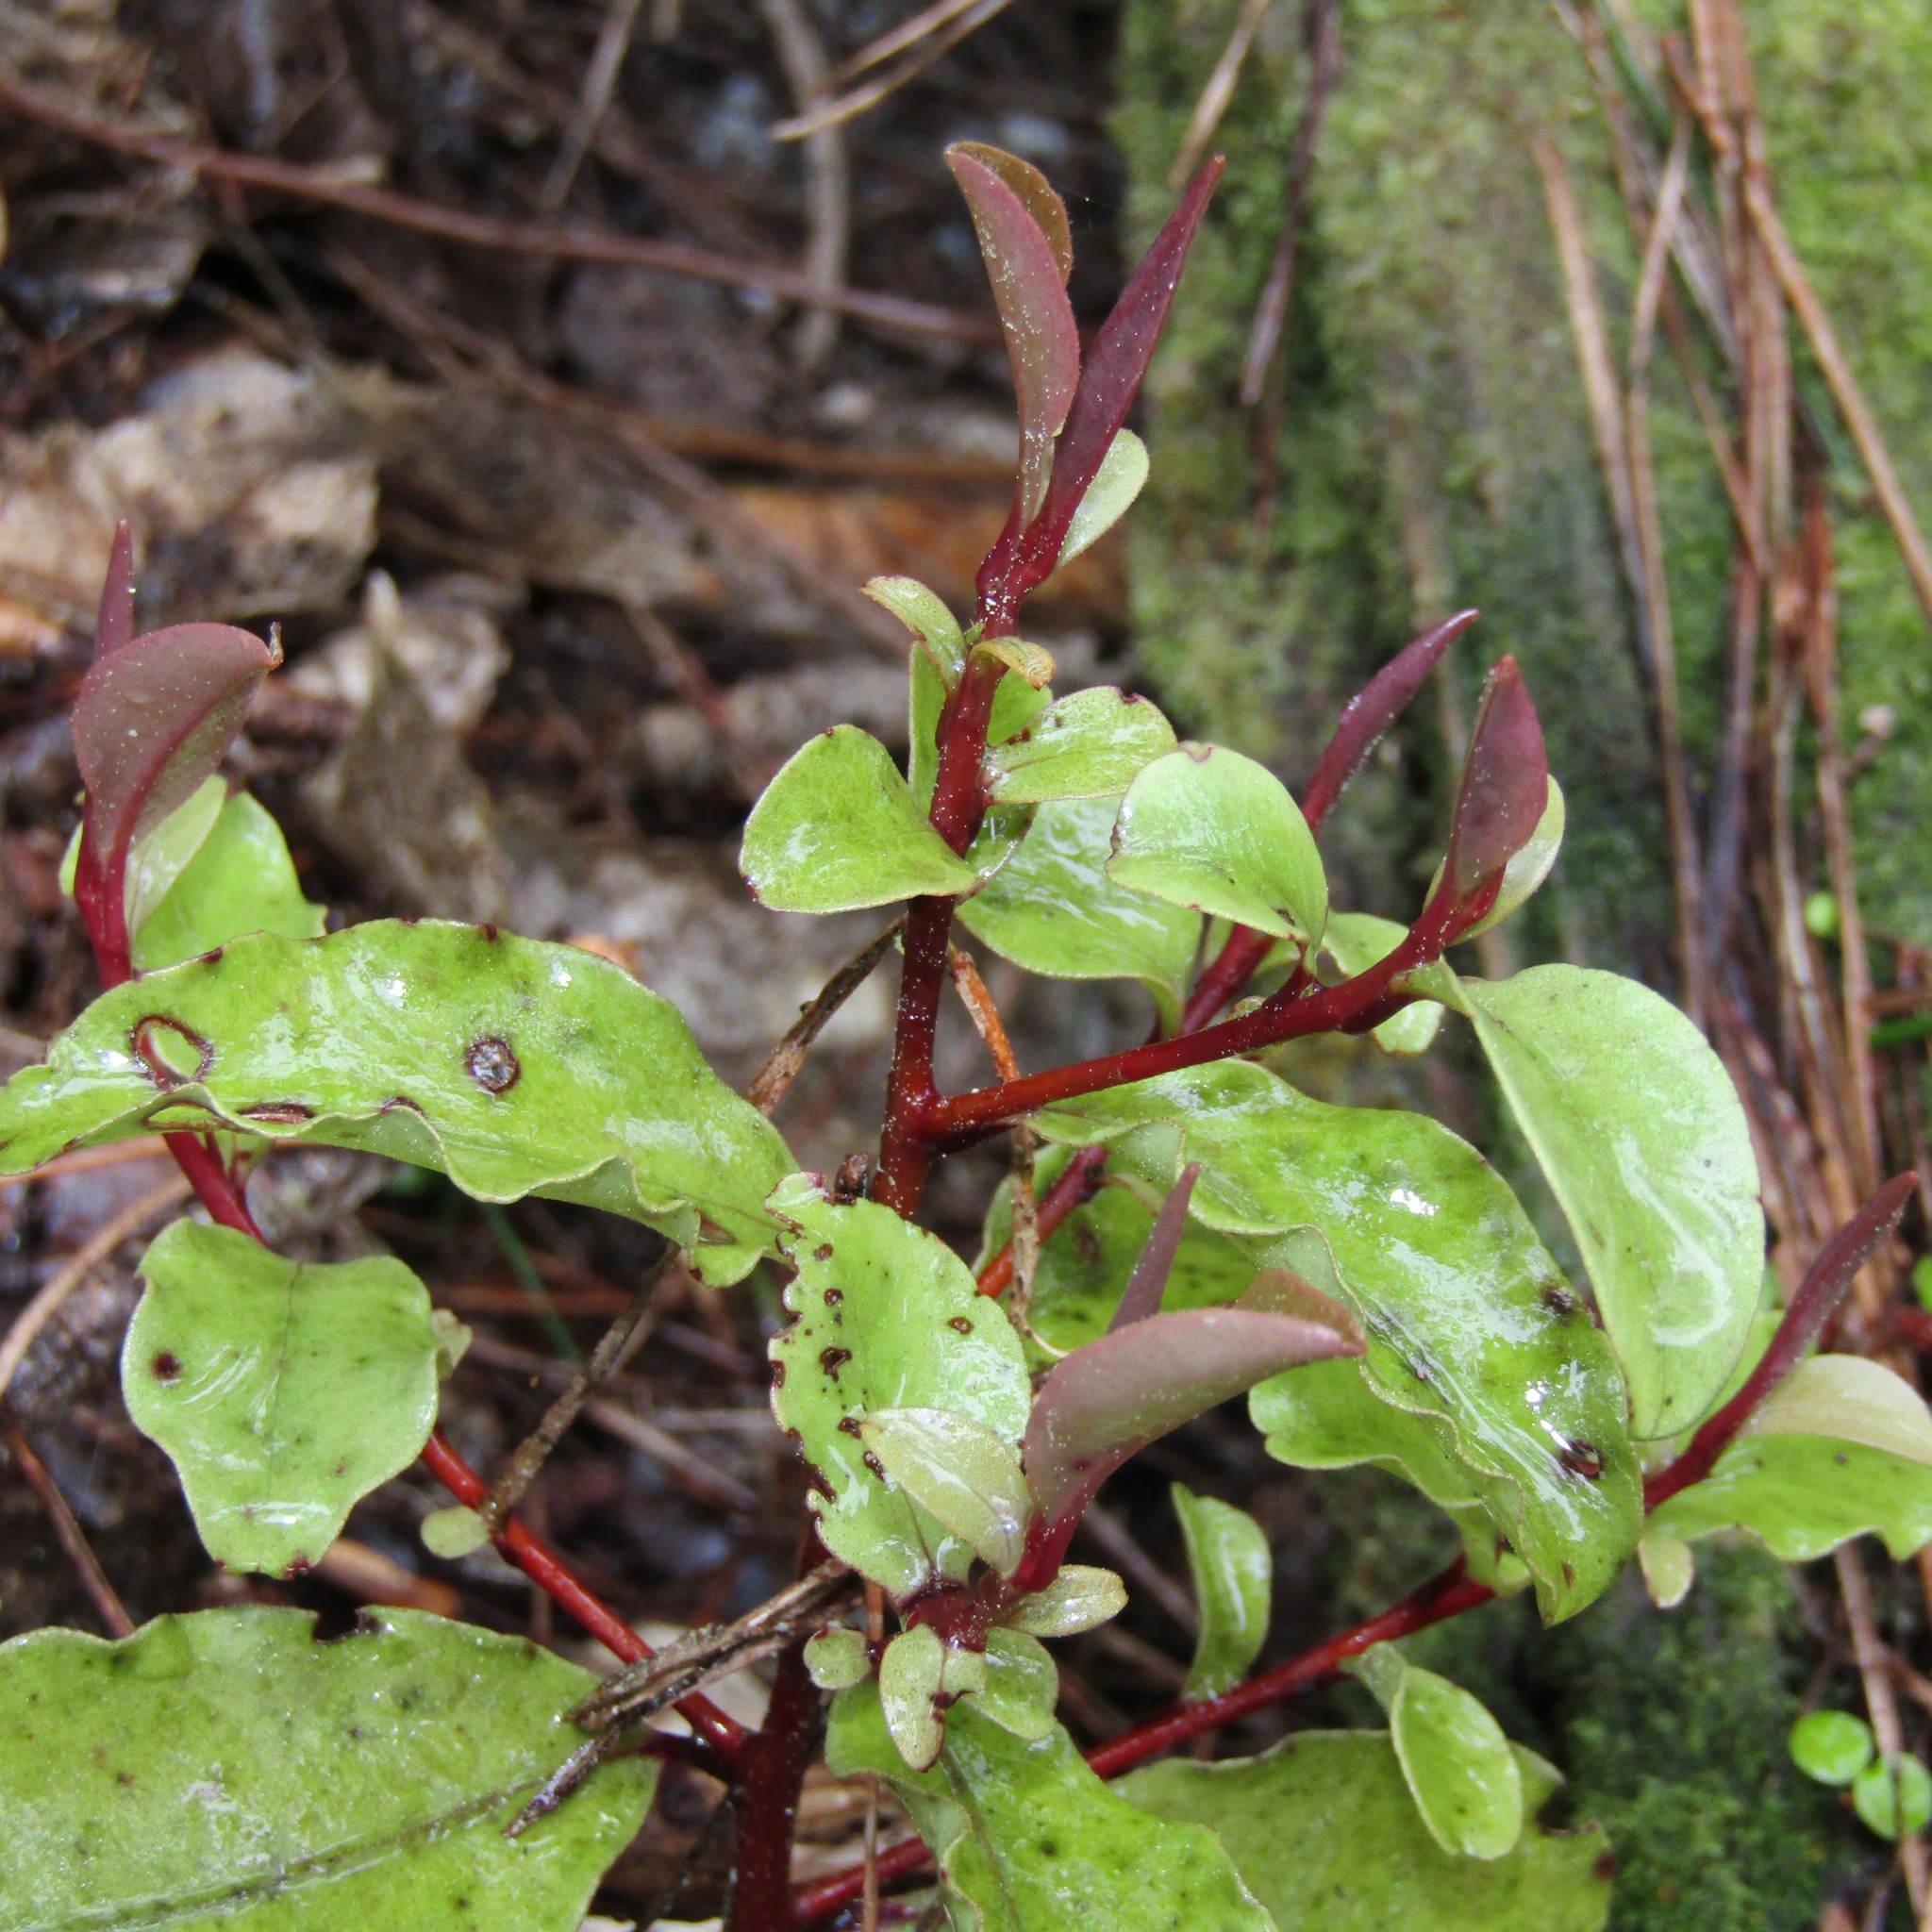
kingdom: Plantae
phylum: Tracheophyta
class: Magnoliopsida
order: Ericales
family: Primulaceae
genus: Myrsine
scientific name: Myrsine australis
